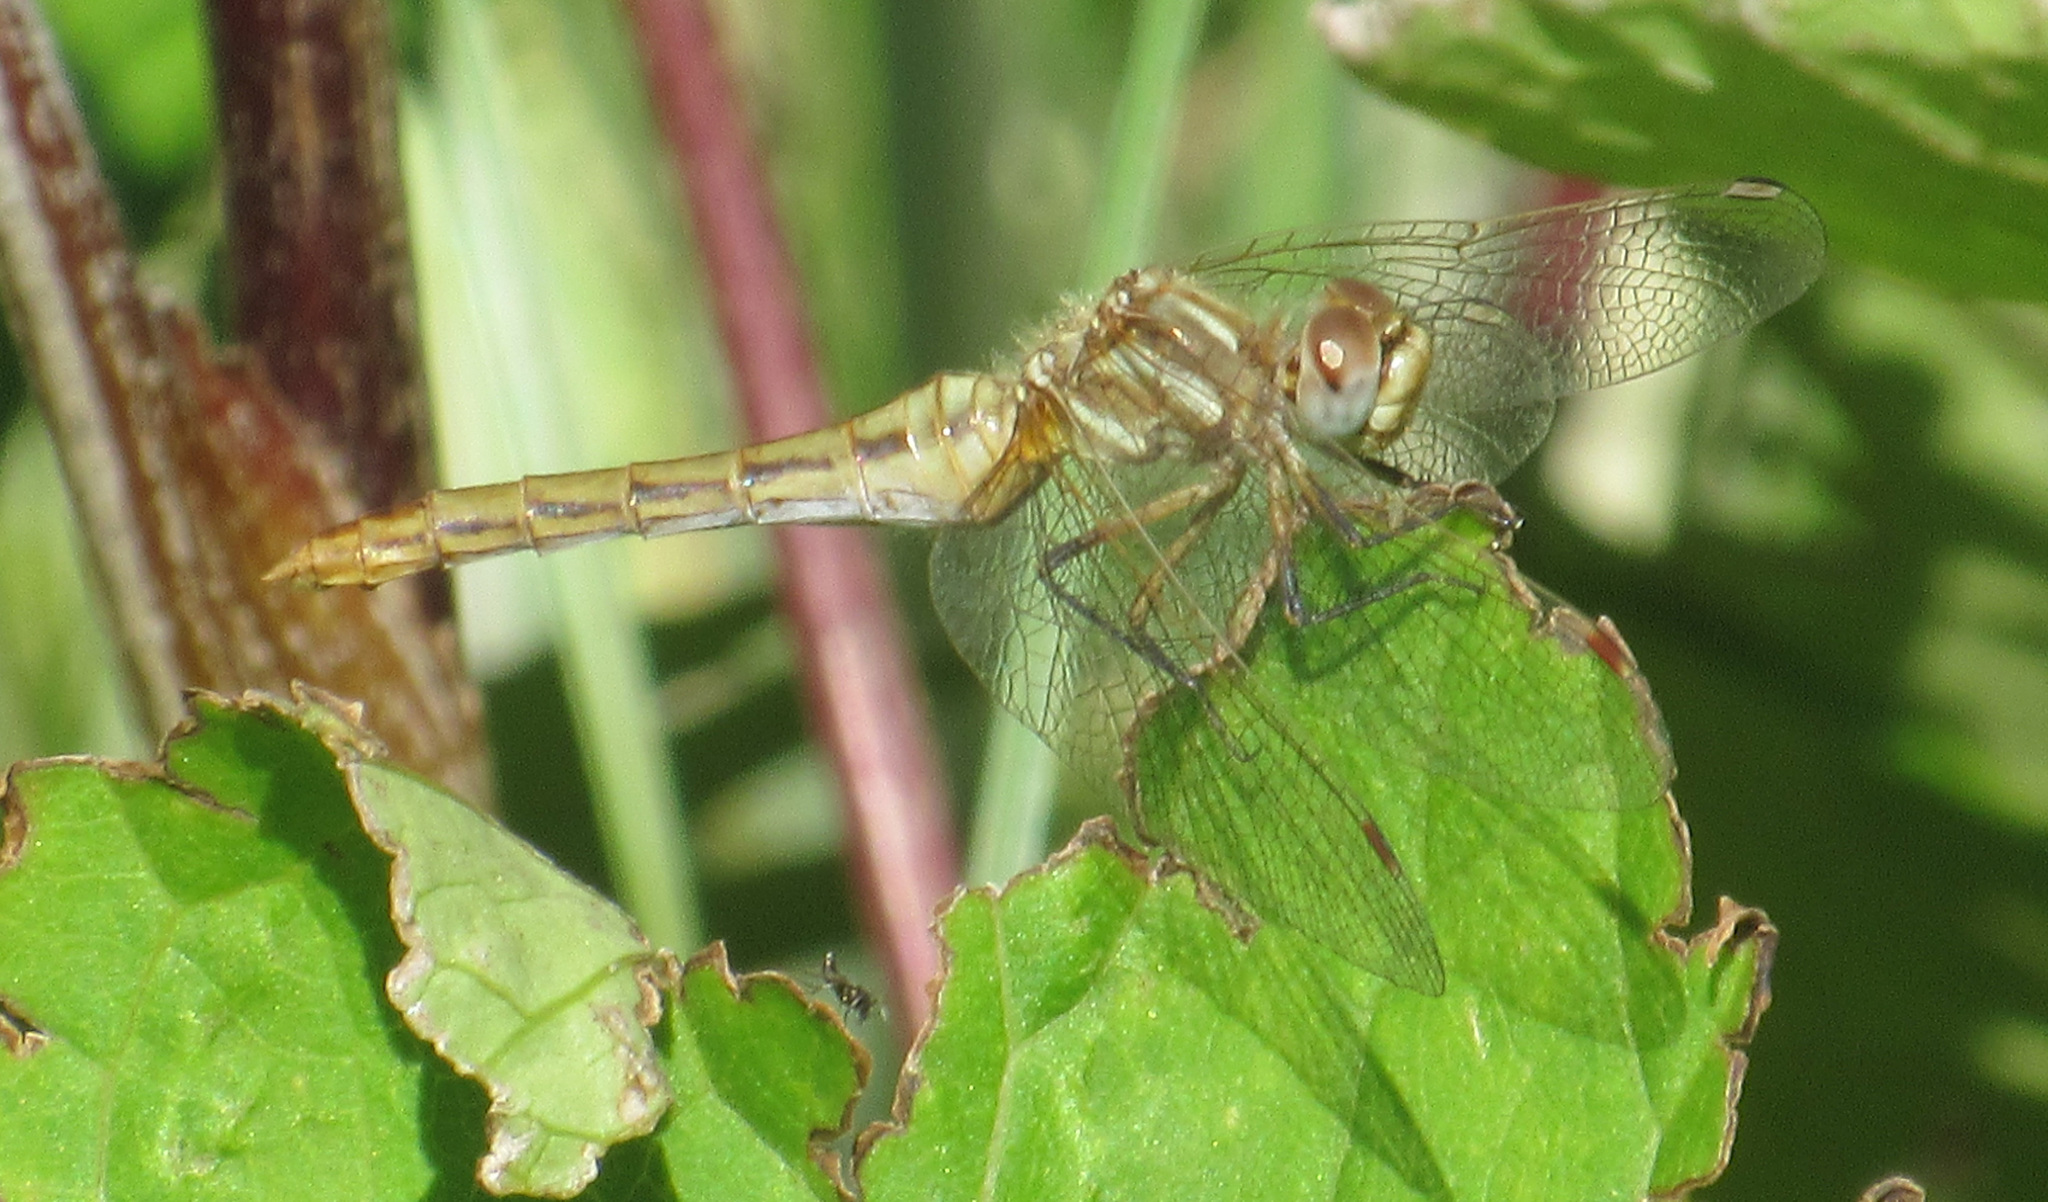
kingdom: Animalia
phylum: Arthropoda
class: Insecta
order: Odonata
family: Libellulidae
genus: Sympetrum
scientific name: Sympetrum pallipes
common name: Striped meadowhawk
